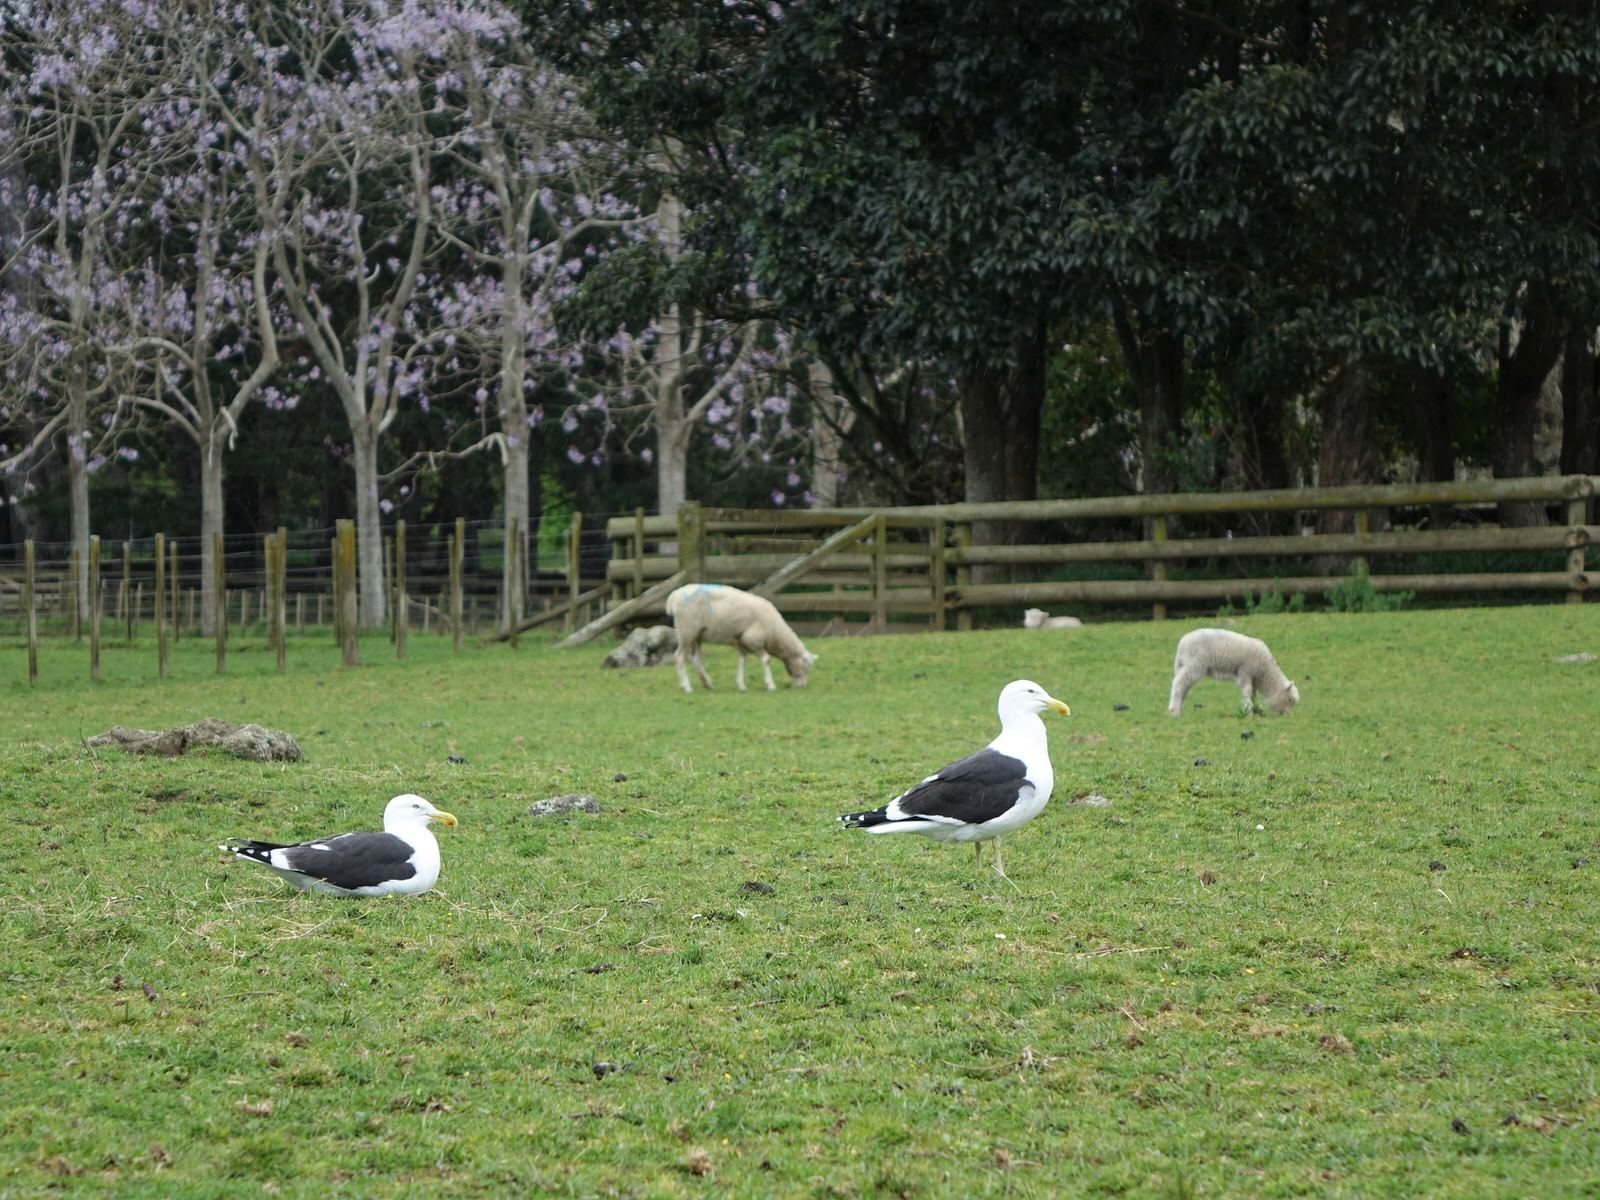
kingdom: Animalia
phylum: Chordata
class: Aves
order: Charadriiformes
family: Laridae
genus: Larus
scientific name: Larus dominicanus
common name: Kelp gull
